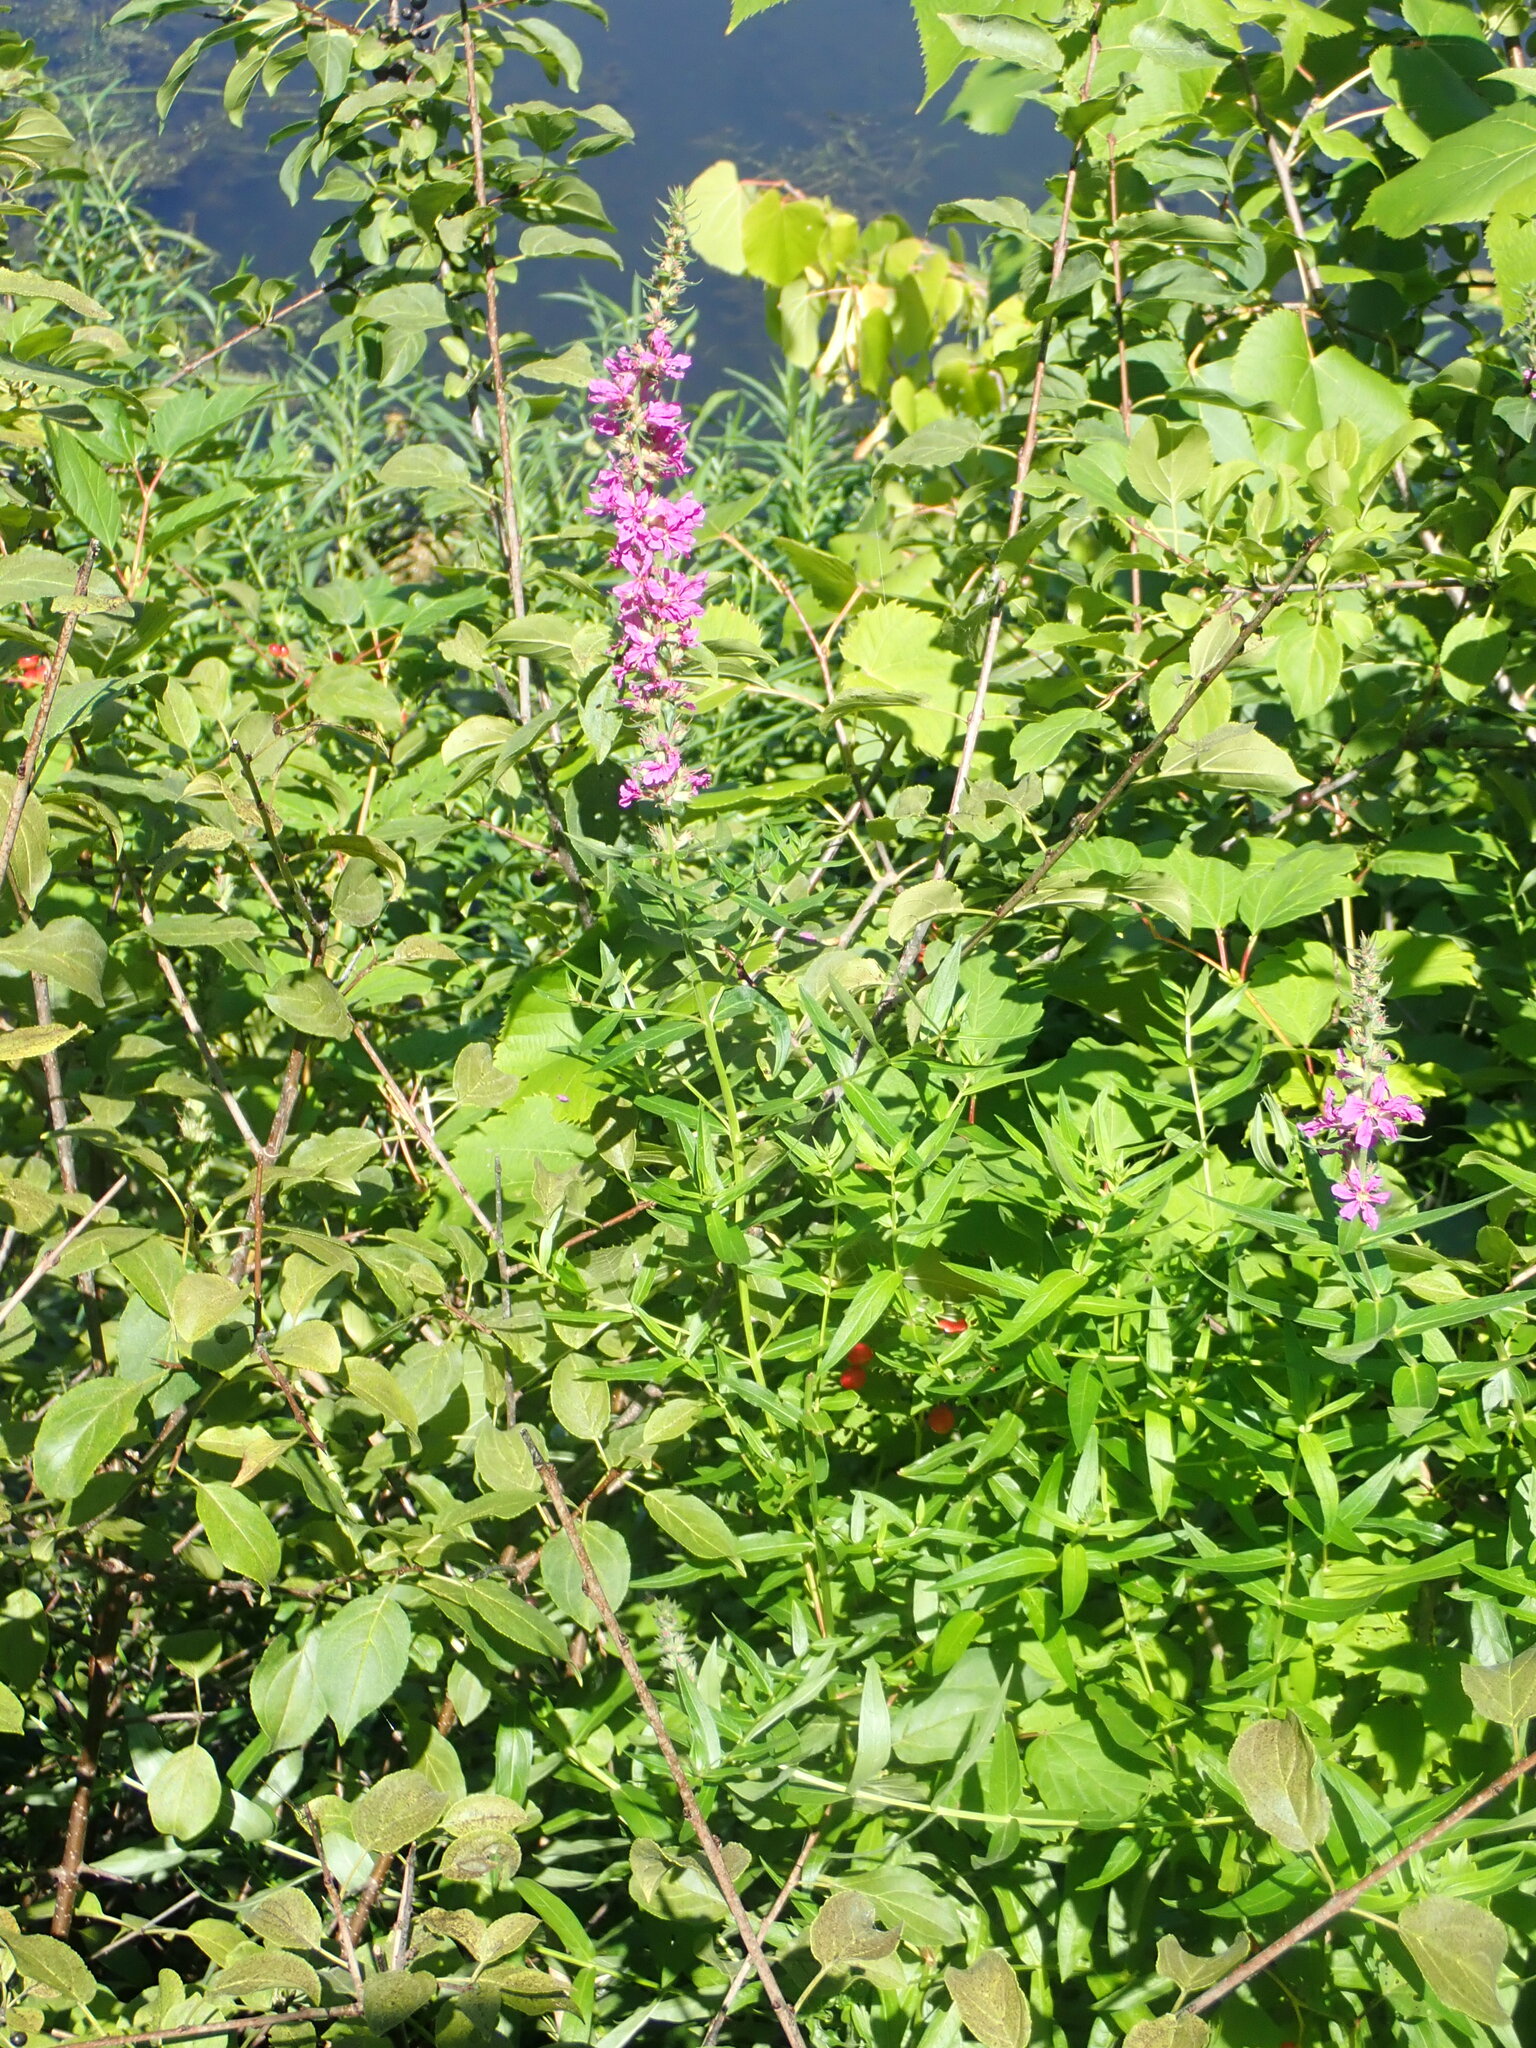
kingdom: Plantae
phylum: Tracheophyta
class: Magnoliopsida
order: Myrtales
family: Lythraceae
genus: Lythrum
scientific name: Lythrum salicaria
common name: Purple loosestrife
